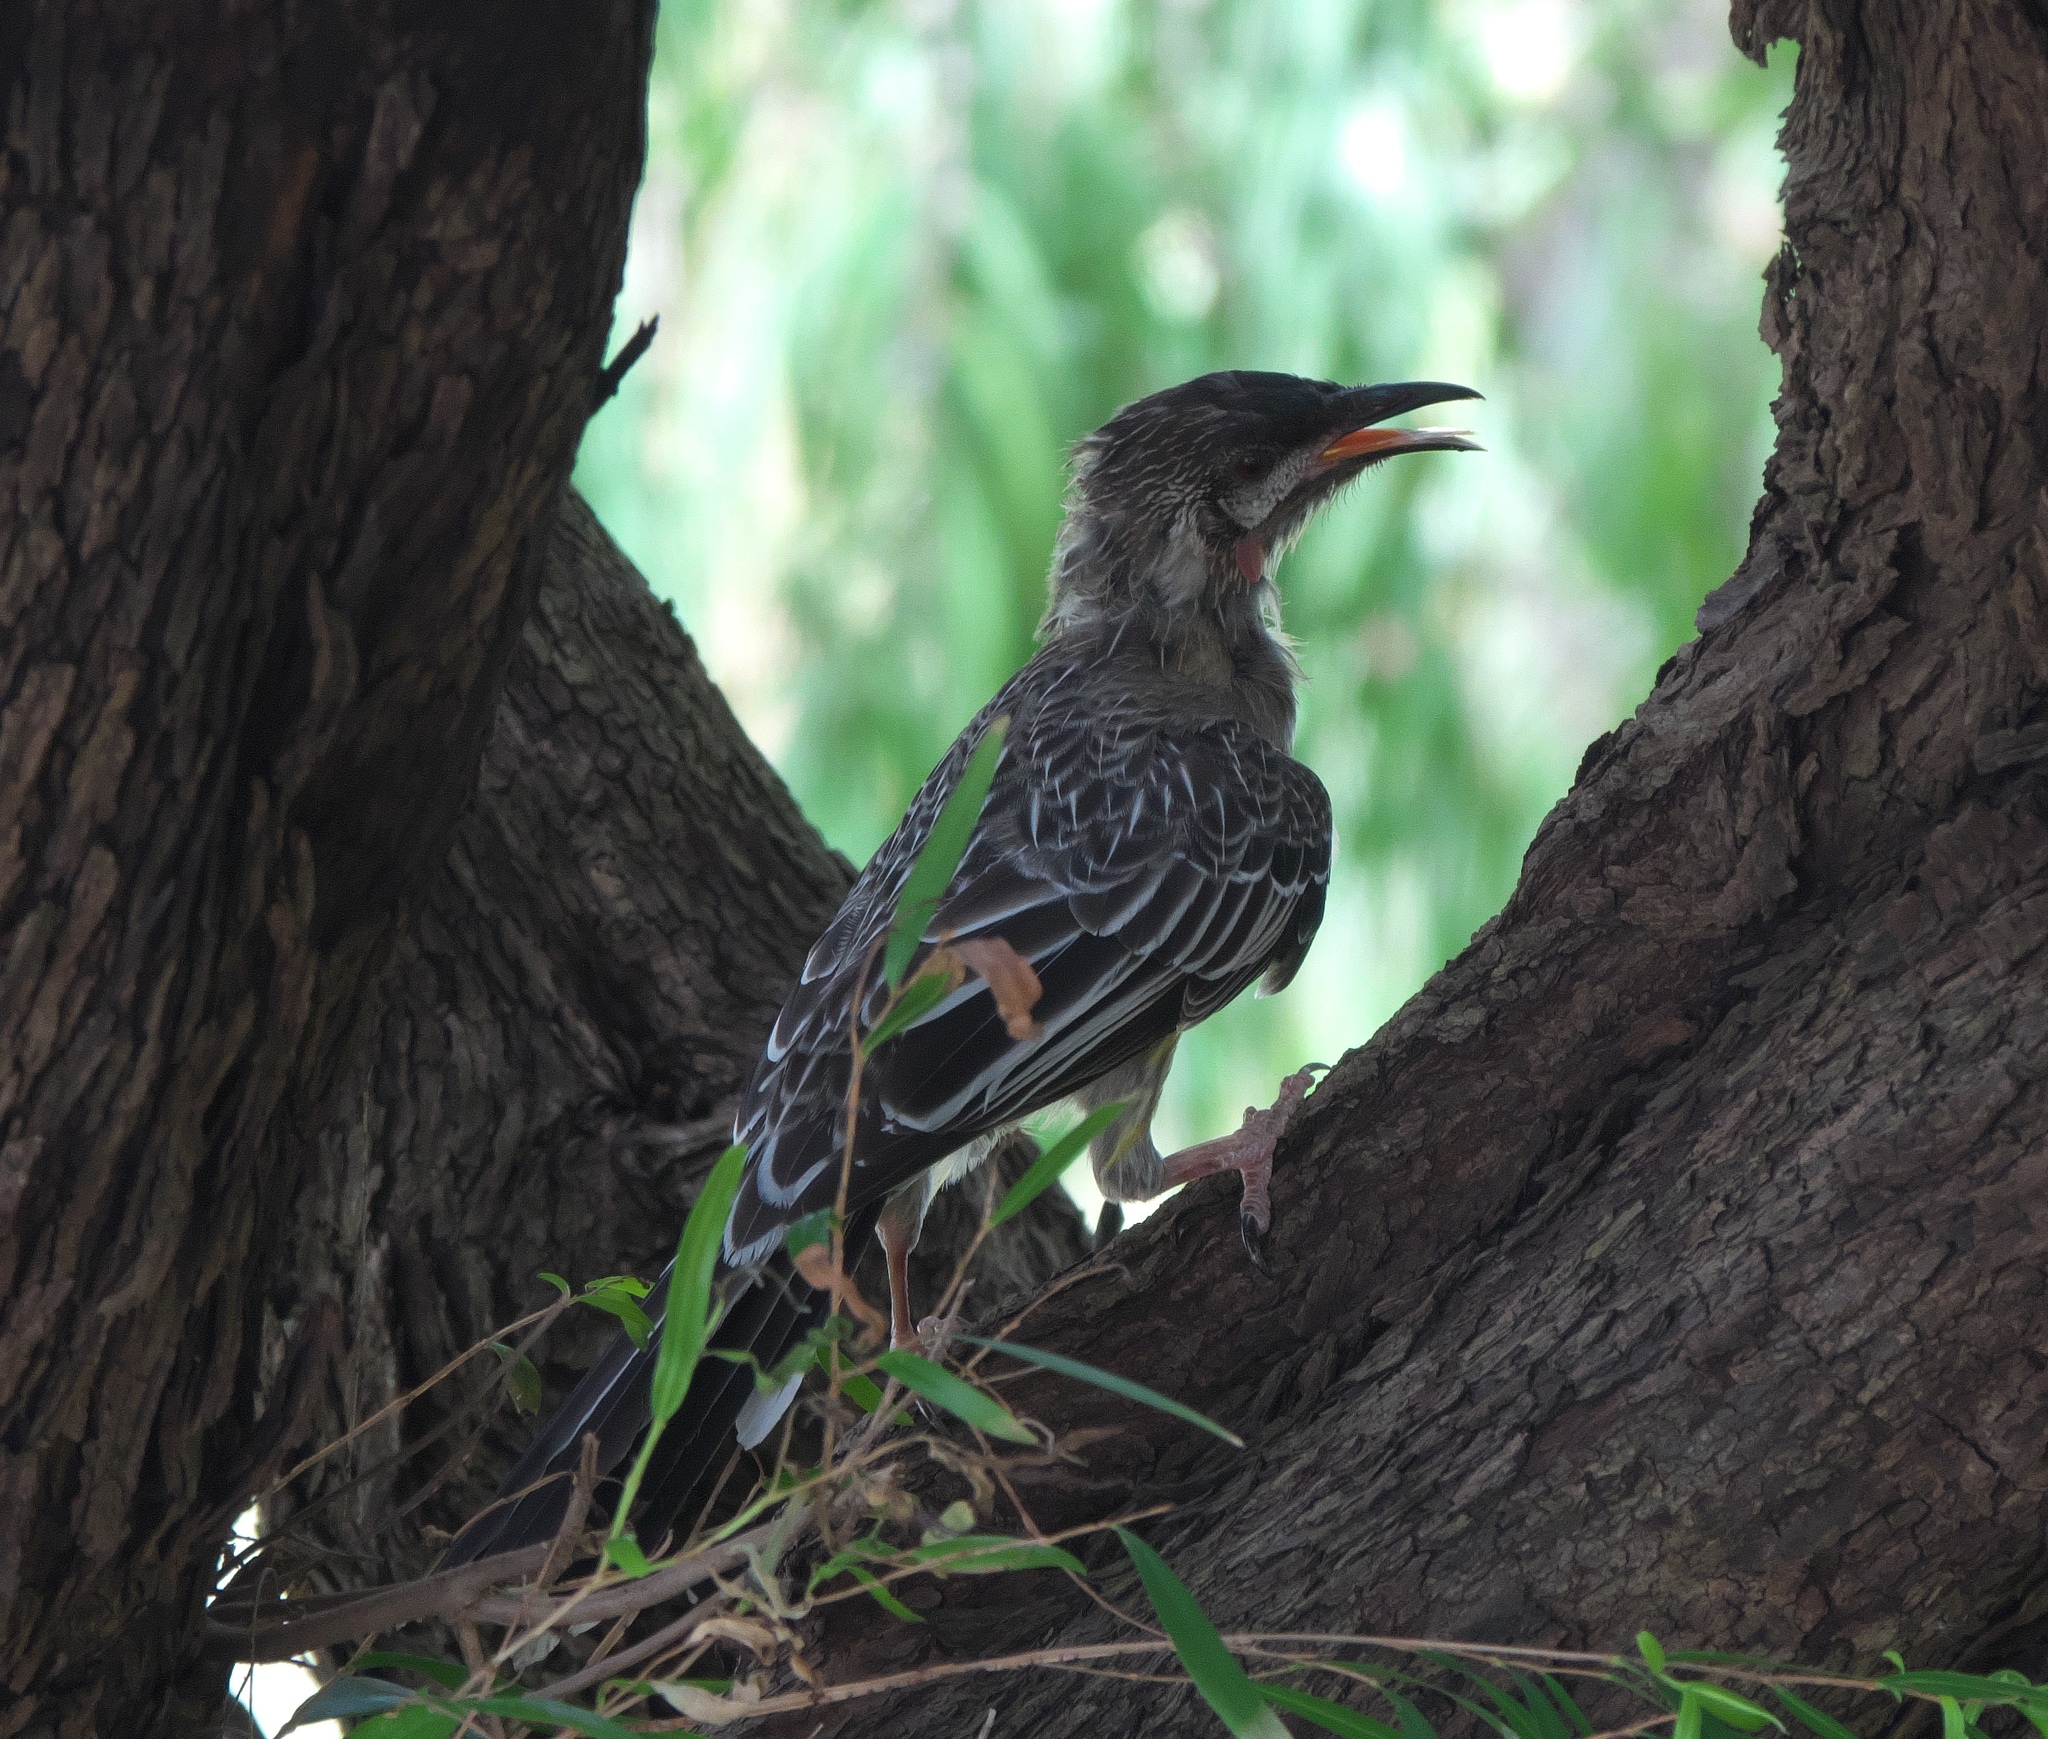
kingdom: Animalia
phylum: Chordata
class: Aves
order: Passeriformes
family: Meliphagidae
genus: Anthochaera
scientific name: Anthochaera carunculata
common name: Red wattlebird
